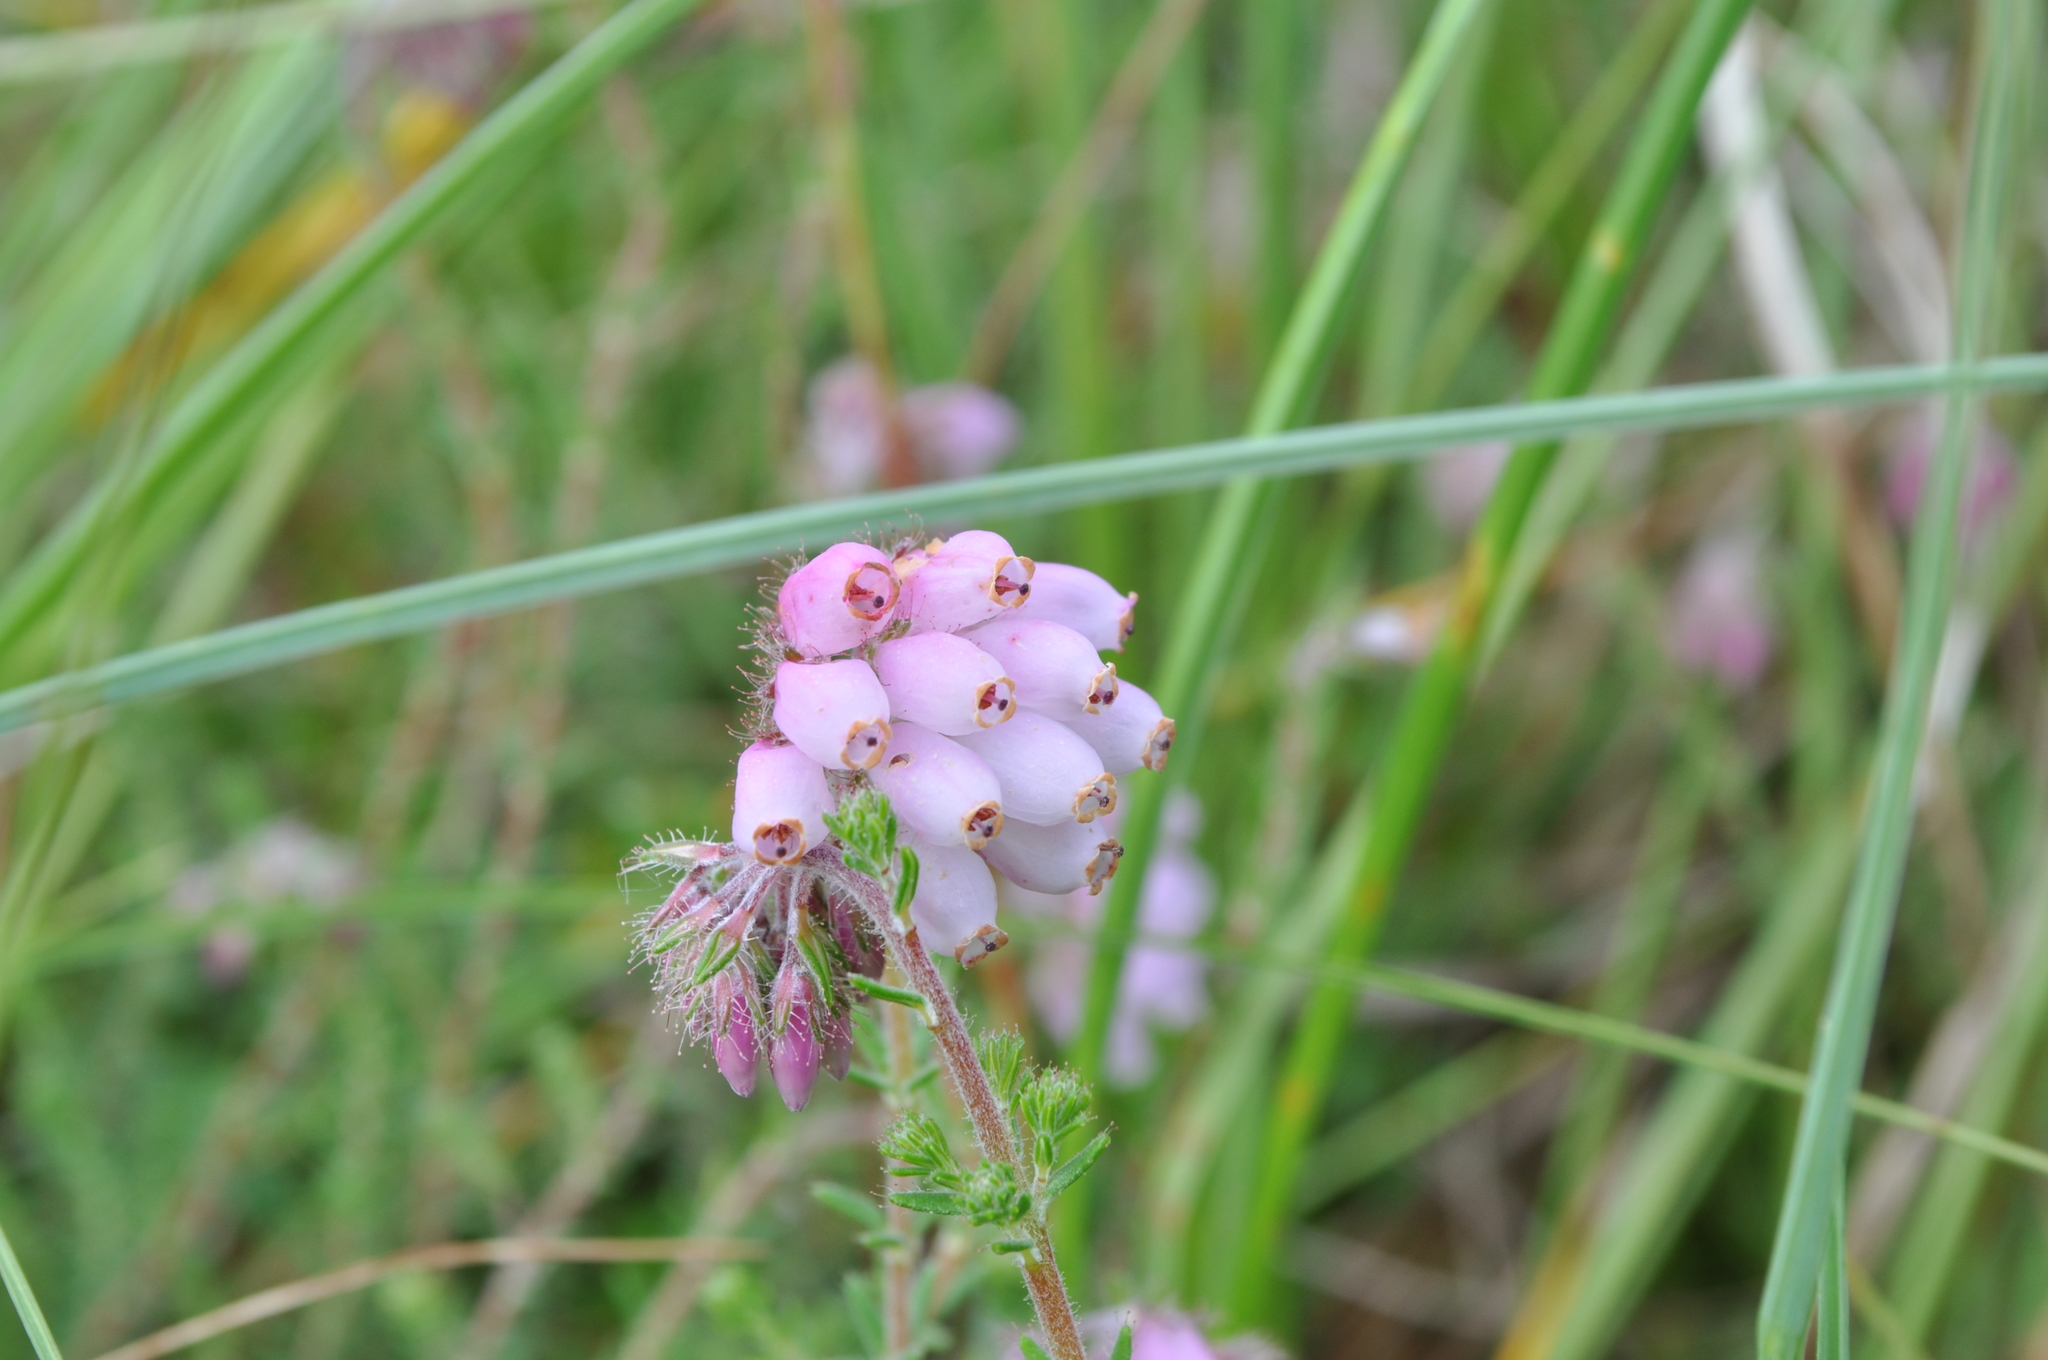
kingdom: Plantae
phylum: Tracheophyta
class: Magnoliopsida
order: Ericales
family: Ericaceae
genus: Erica
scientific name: Erica tetralix
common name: Cross-leaved heath
